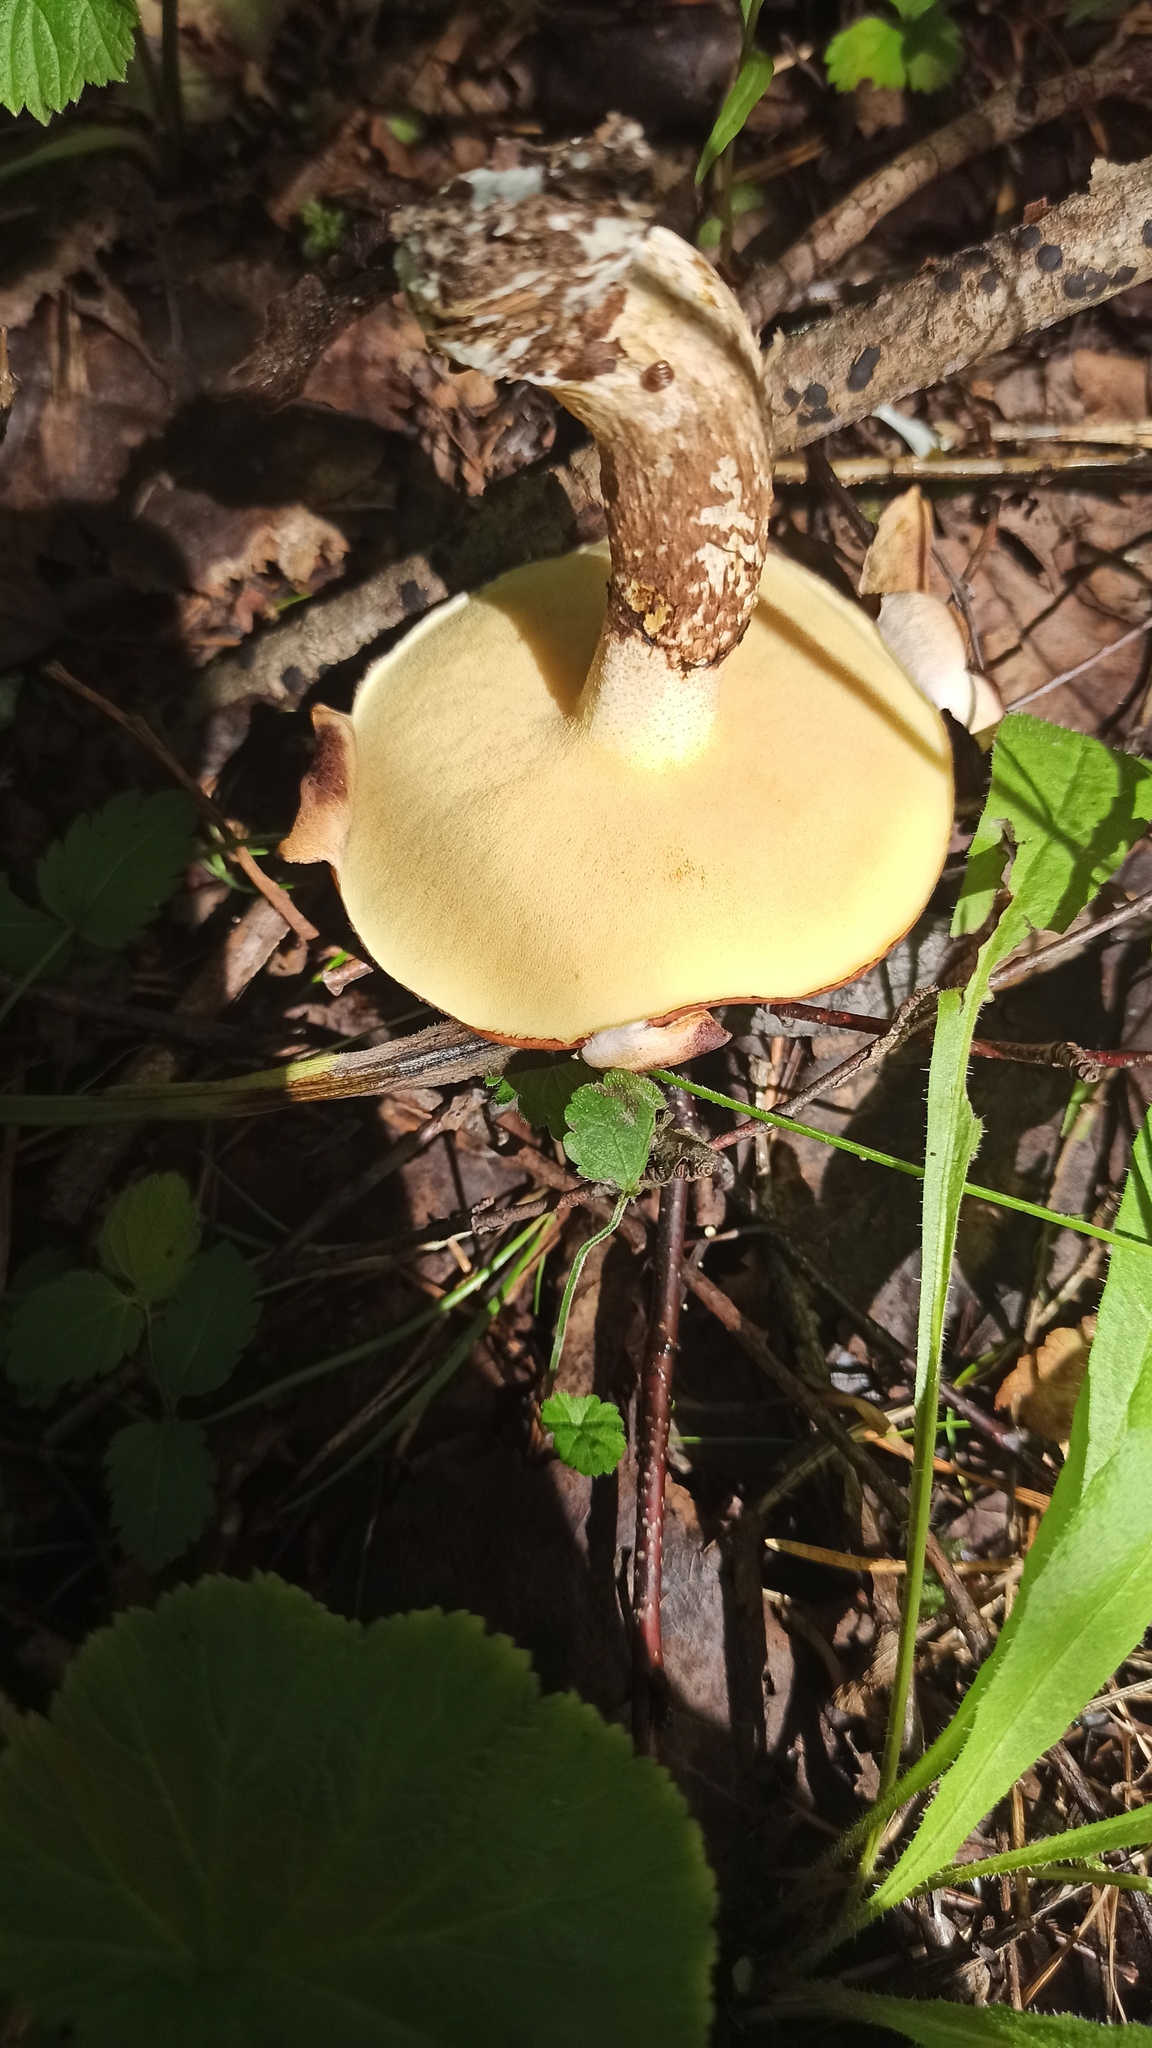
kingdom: Fungi
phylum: Basidiomycota
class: Agaricomycetes
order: Boletales
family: Suillaceae
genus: Suillus
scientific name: Suillus luteus
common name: Slippery jack
